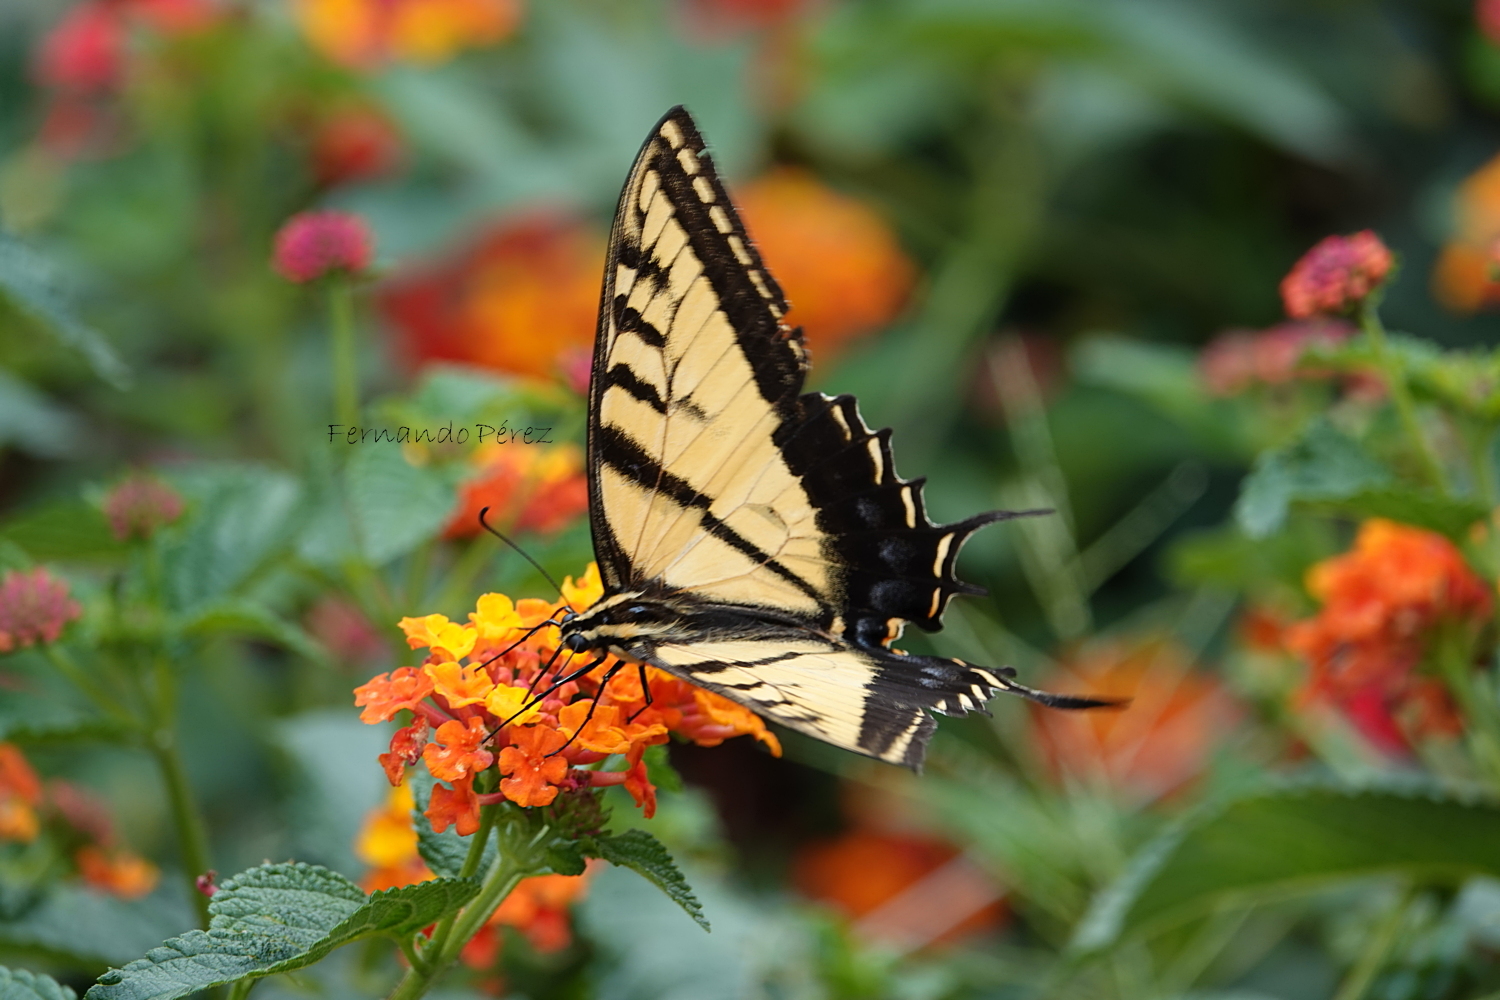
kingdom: Animalia
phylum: Arthropoda
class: Insecta
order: Lepidoptera
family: Papilionidae
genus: Papilio
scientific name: Papilio multicaudata
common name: Two-tailed tiger swallowtail
